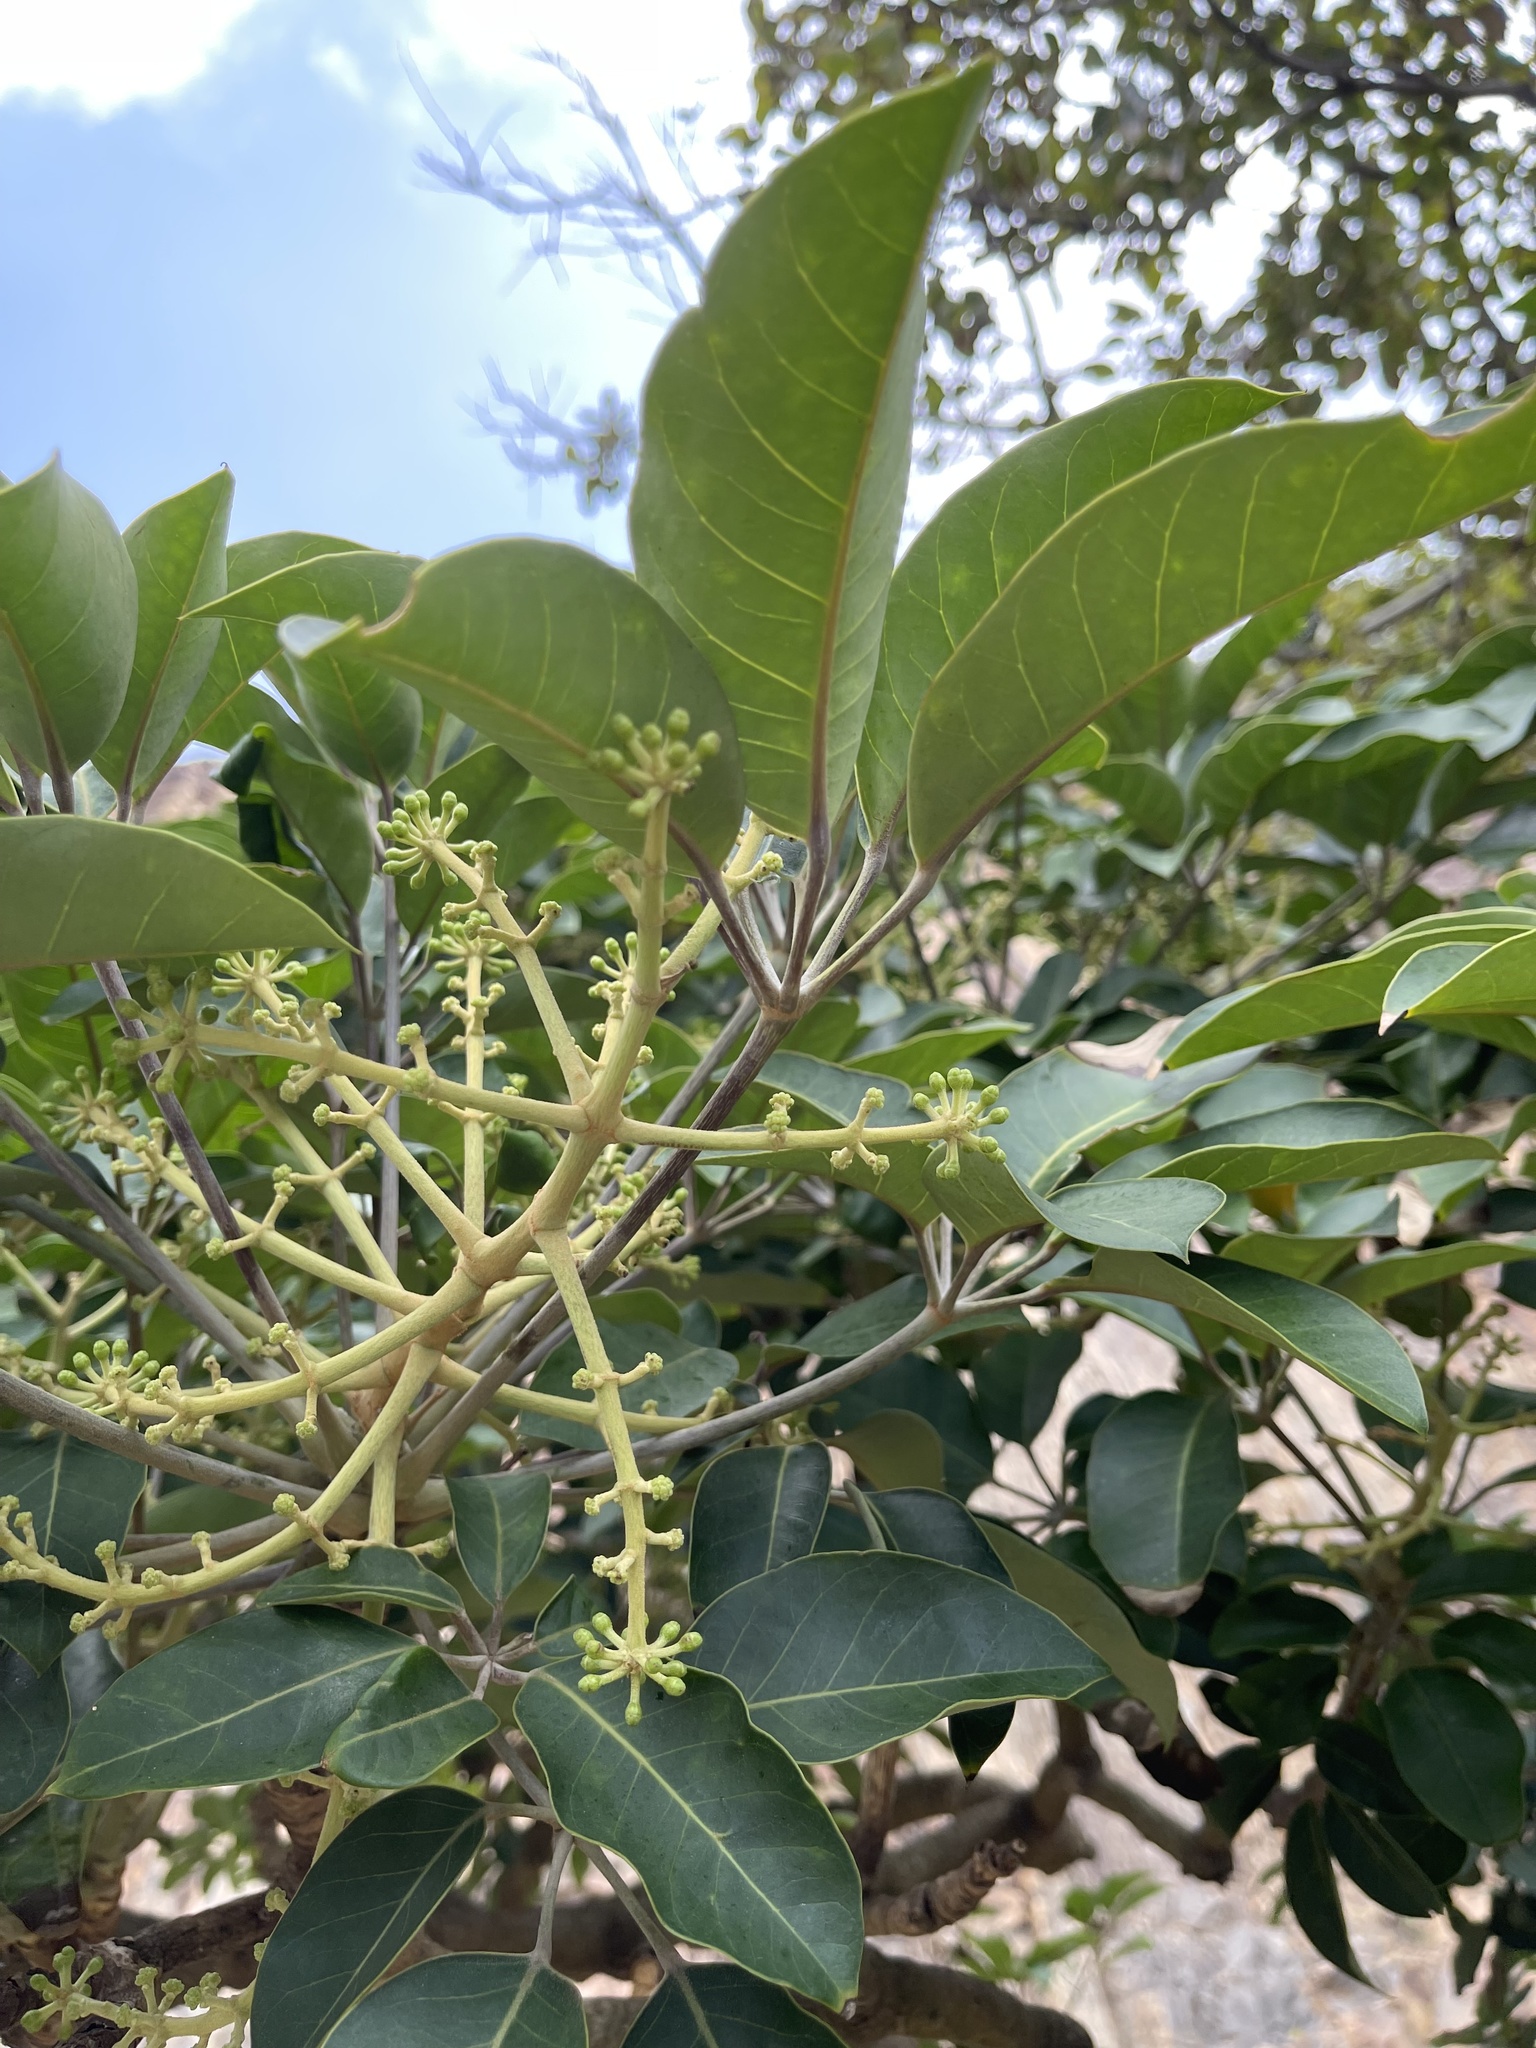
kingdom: Plantae
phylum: Tracheophyta
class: Magnoliopsida
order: Apiales
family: Araliaceae
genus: Heptapleurum
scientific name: Heptapleurum heptaphyllum
